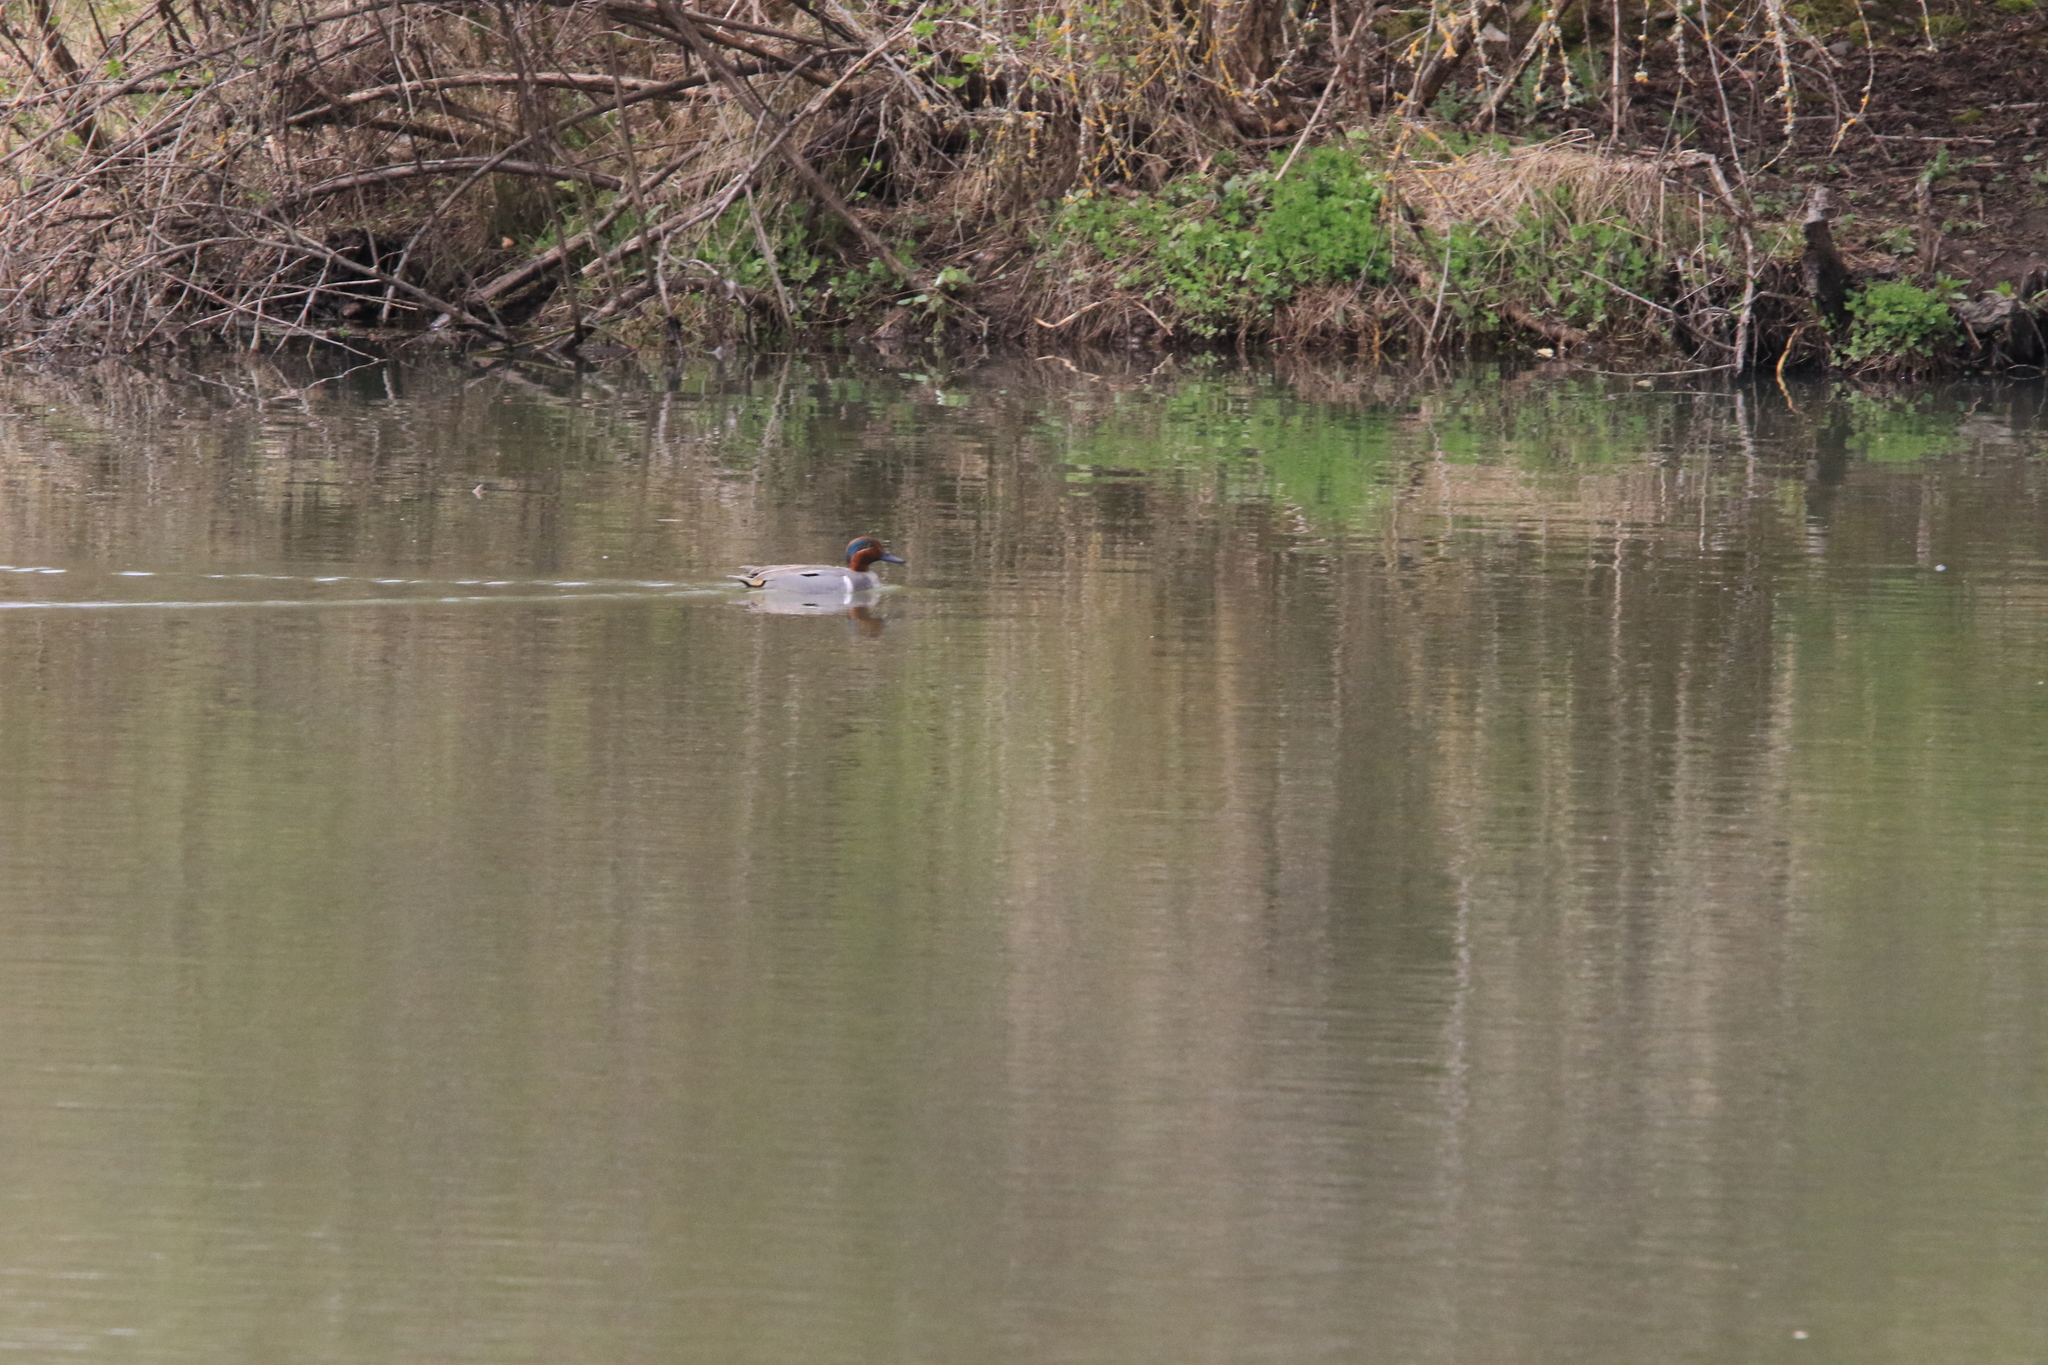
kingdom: Animalia
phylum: Chordata
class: Aves
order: Anseriformes
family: Anatidae
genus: Anas
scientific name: Anas crecca
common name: Eurasian teal
